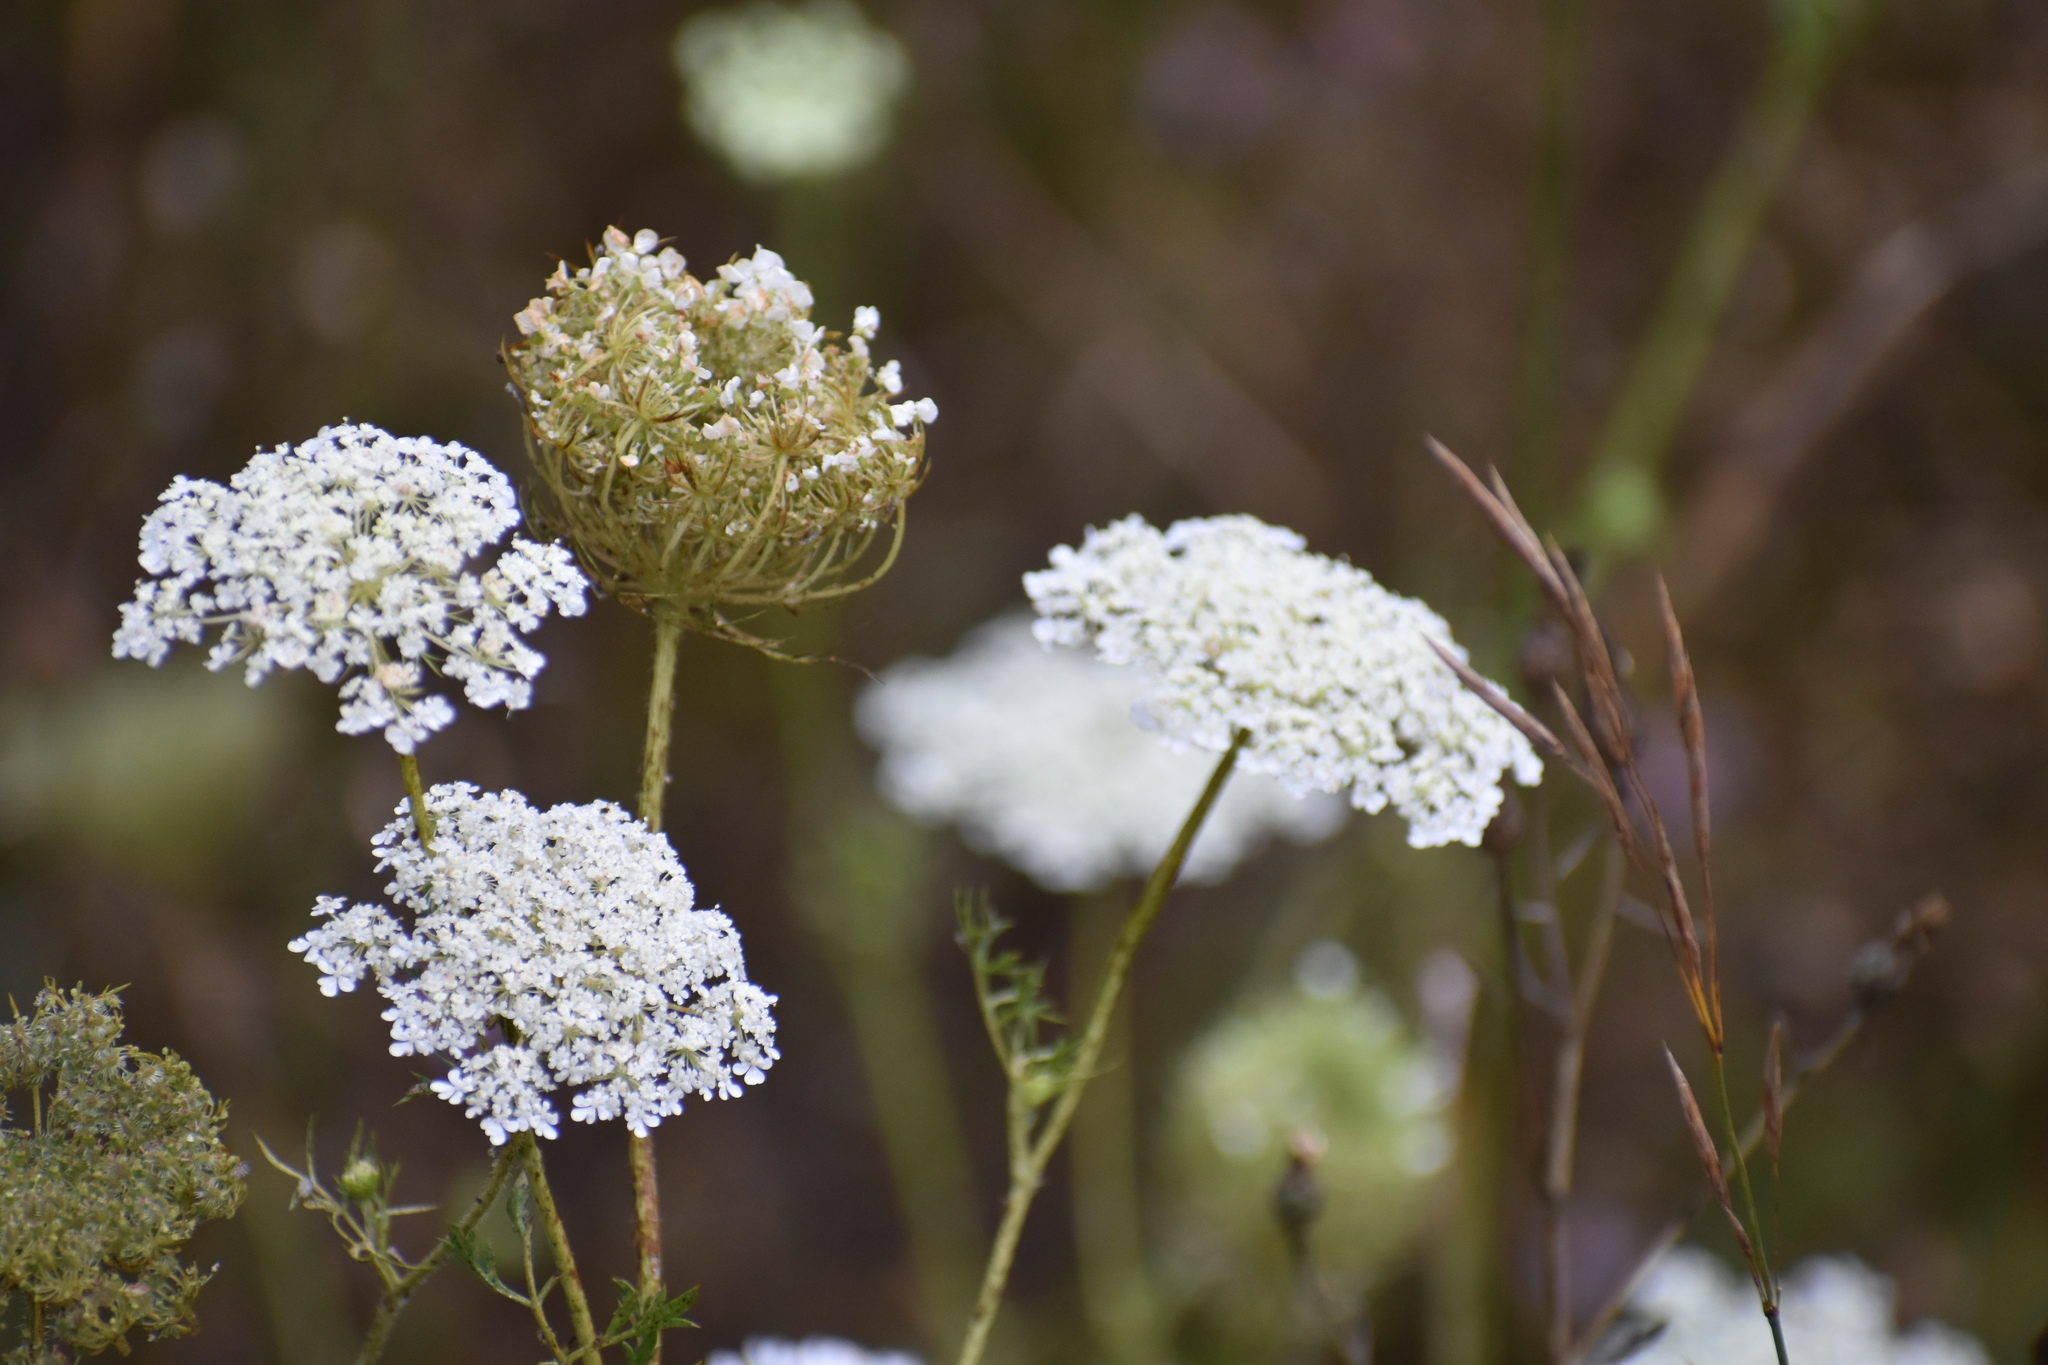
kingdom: Plantae
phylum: Tracheophyta
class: Magnoliopsida
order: Apiales
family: Apiaceae
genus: Daucus
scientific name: Daucus carota
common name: Wild carrot
